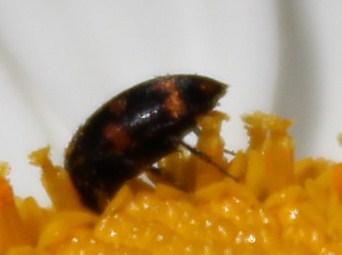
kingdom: Animalia
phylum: Arthropoda
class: Insecta
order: Coleoptera
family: Dermestidae
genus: Attagenus
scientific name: Attagenus
